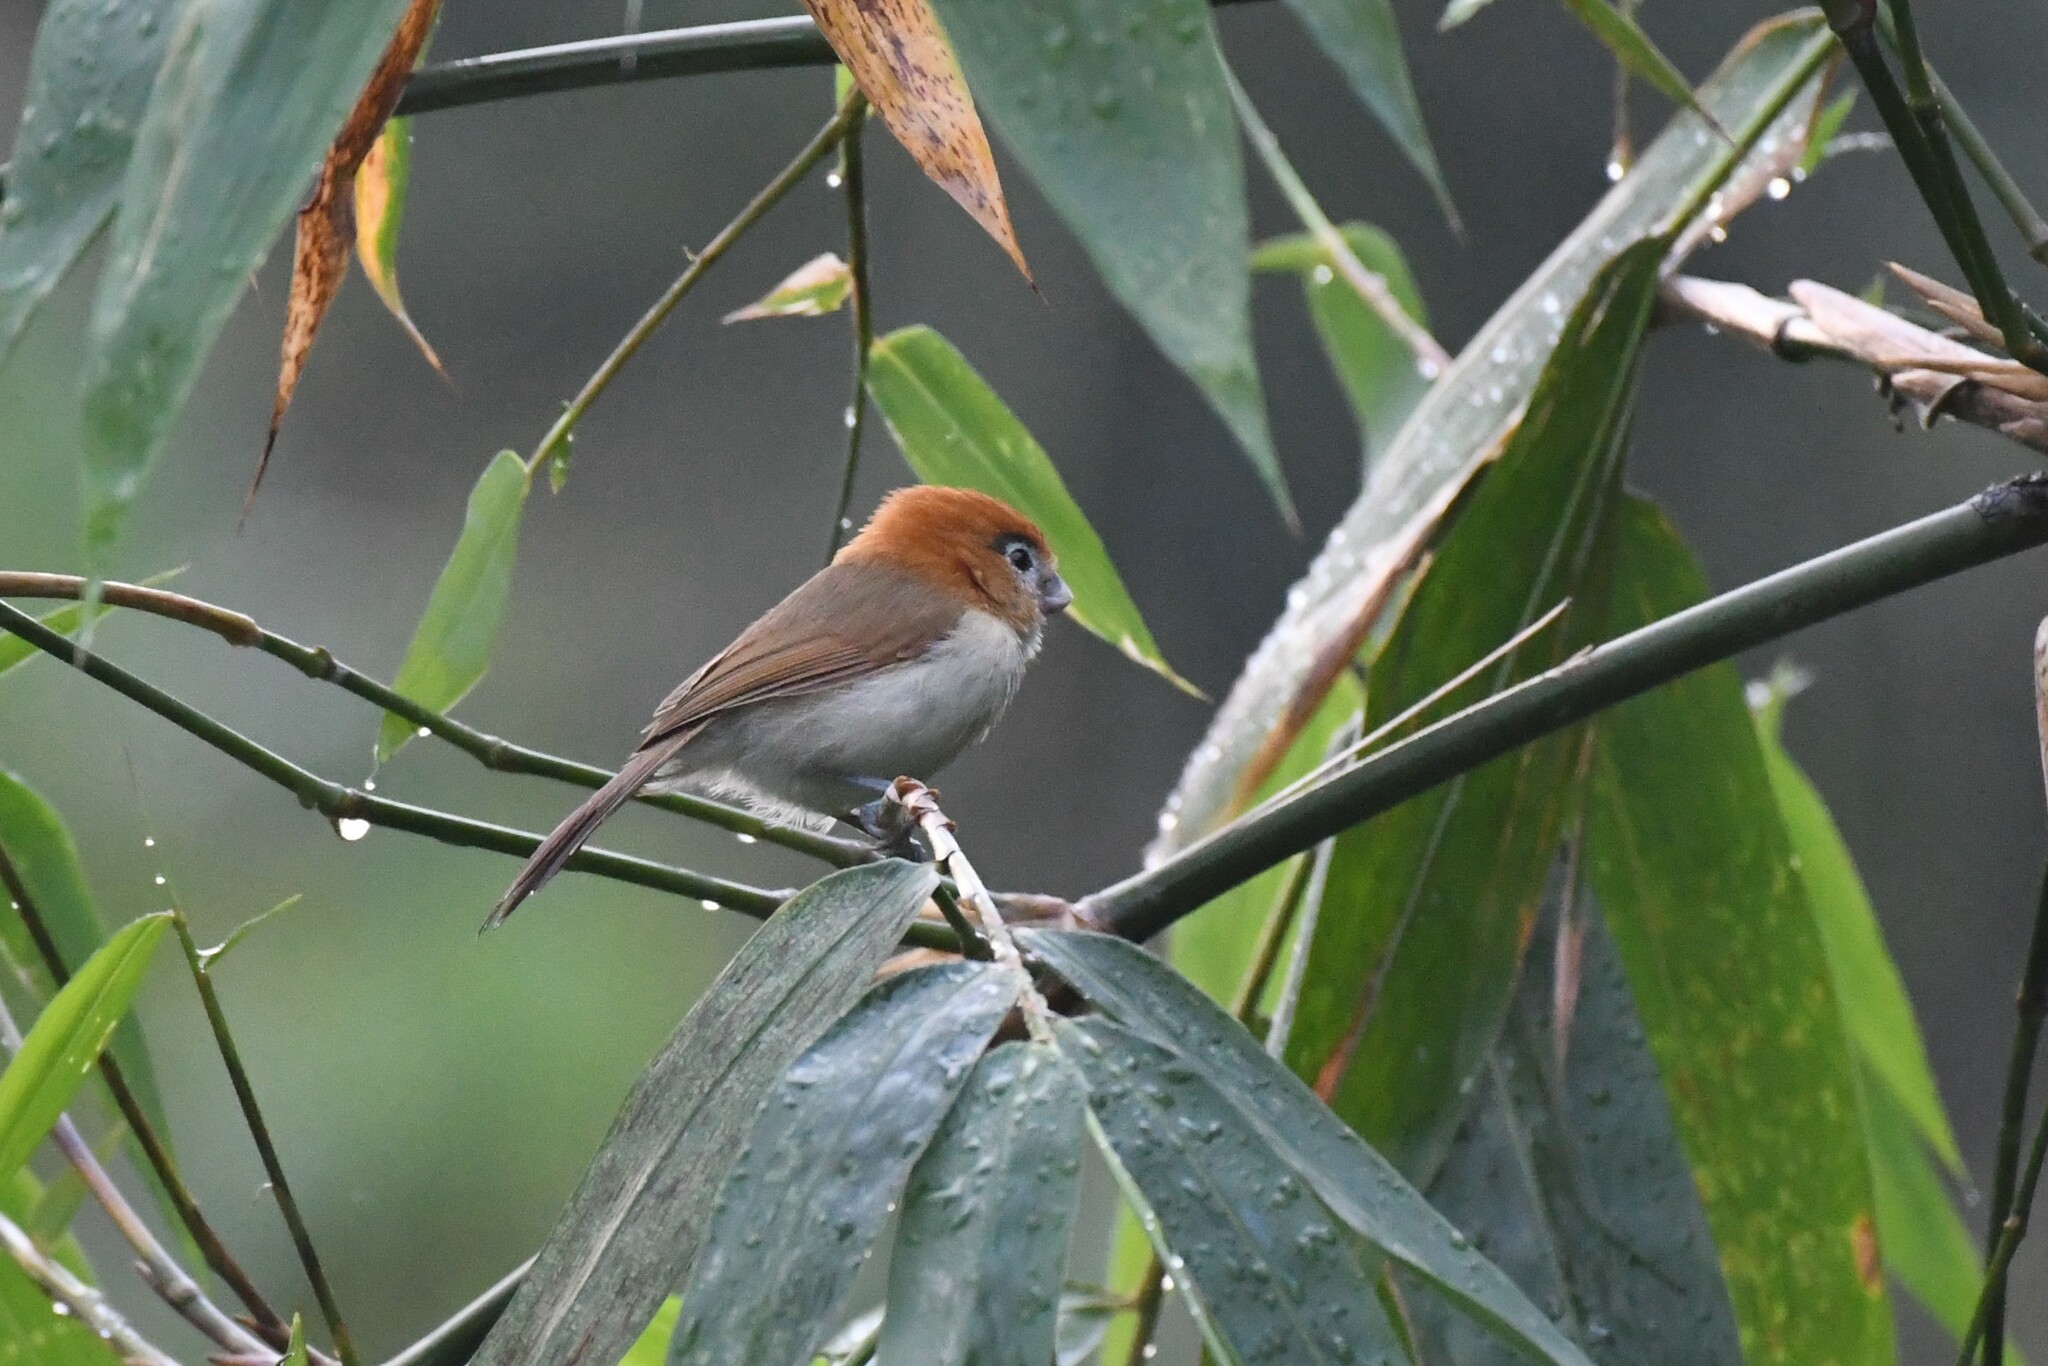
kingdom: Animalia
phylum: Chordata
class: Aves
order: Passeriformes
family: Sylviidae
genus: Chleuasicus
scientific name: Chleuasicus atrosuperciliaris
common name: Pale-billed parrotbill
